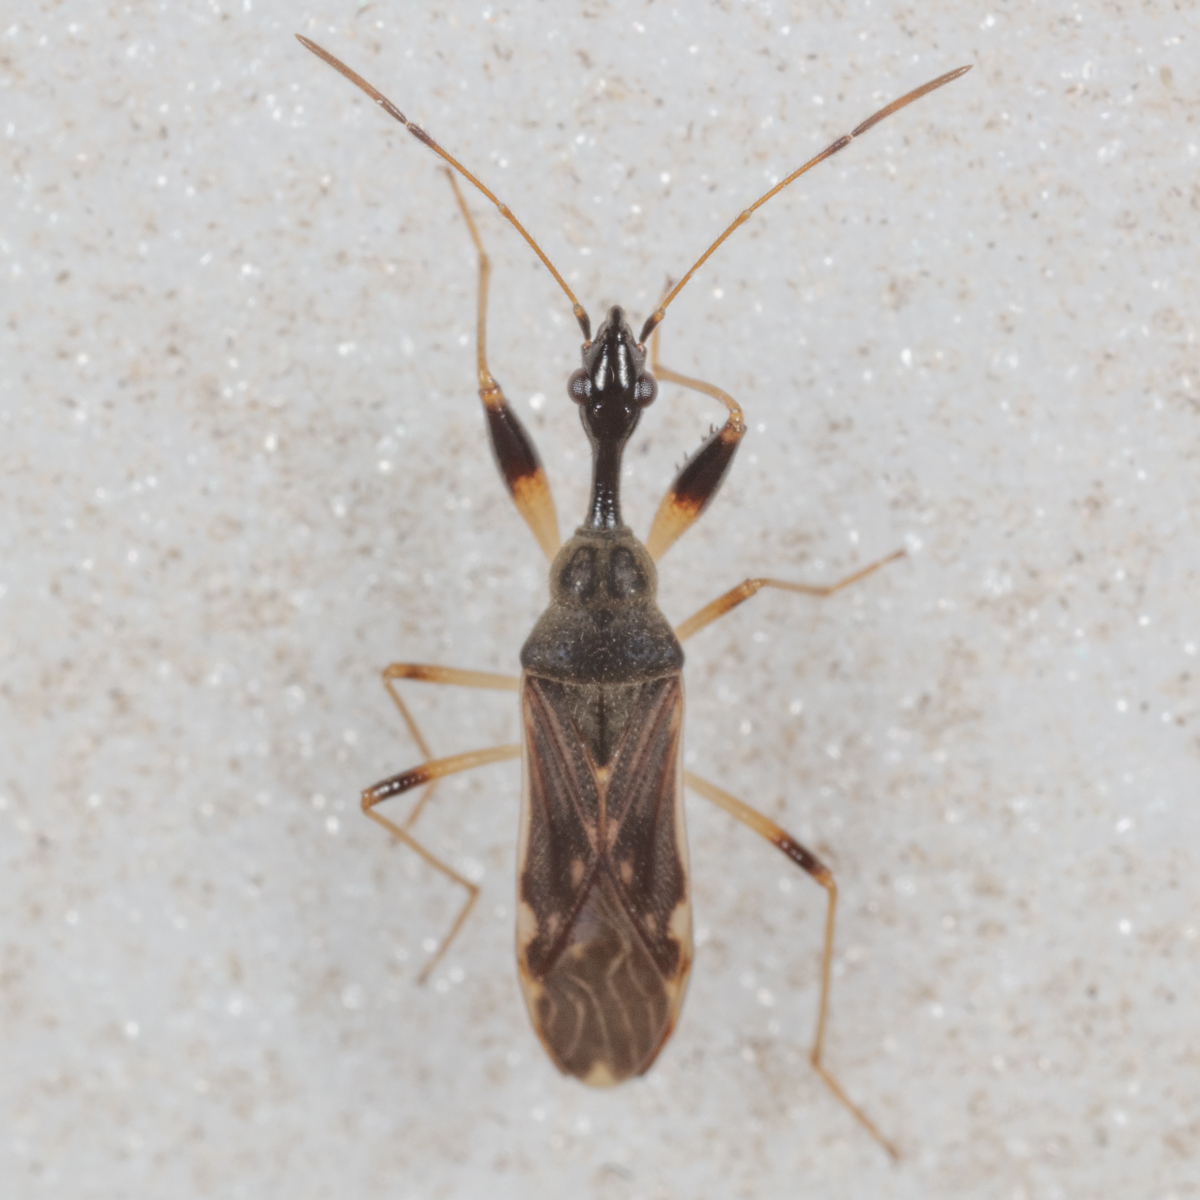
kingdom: Animalia
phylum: Arthropoda
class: Insecta
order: Hemiptera
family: Rhyparochromidae
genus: Myodocha
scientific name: Myodocha serripes
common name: Long-necked seed bug
